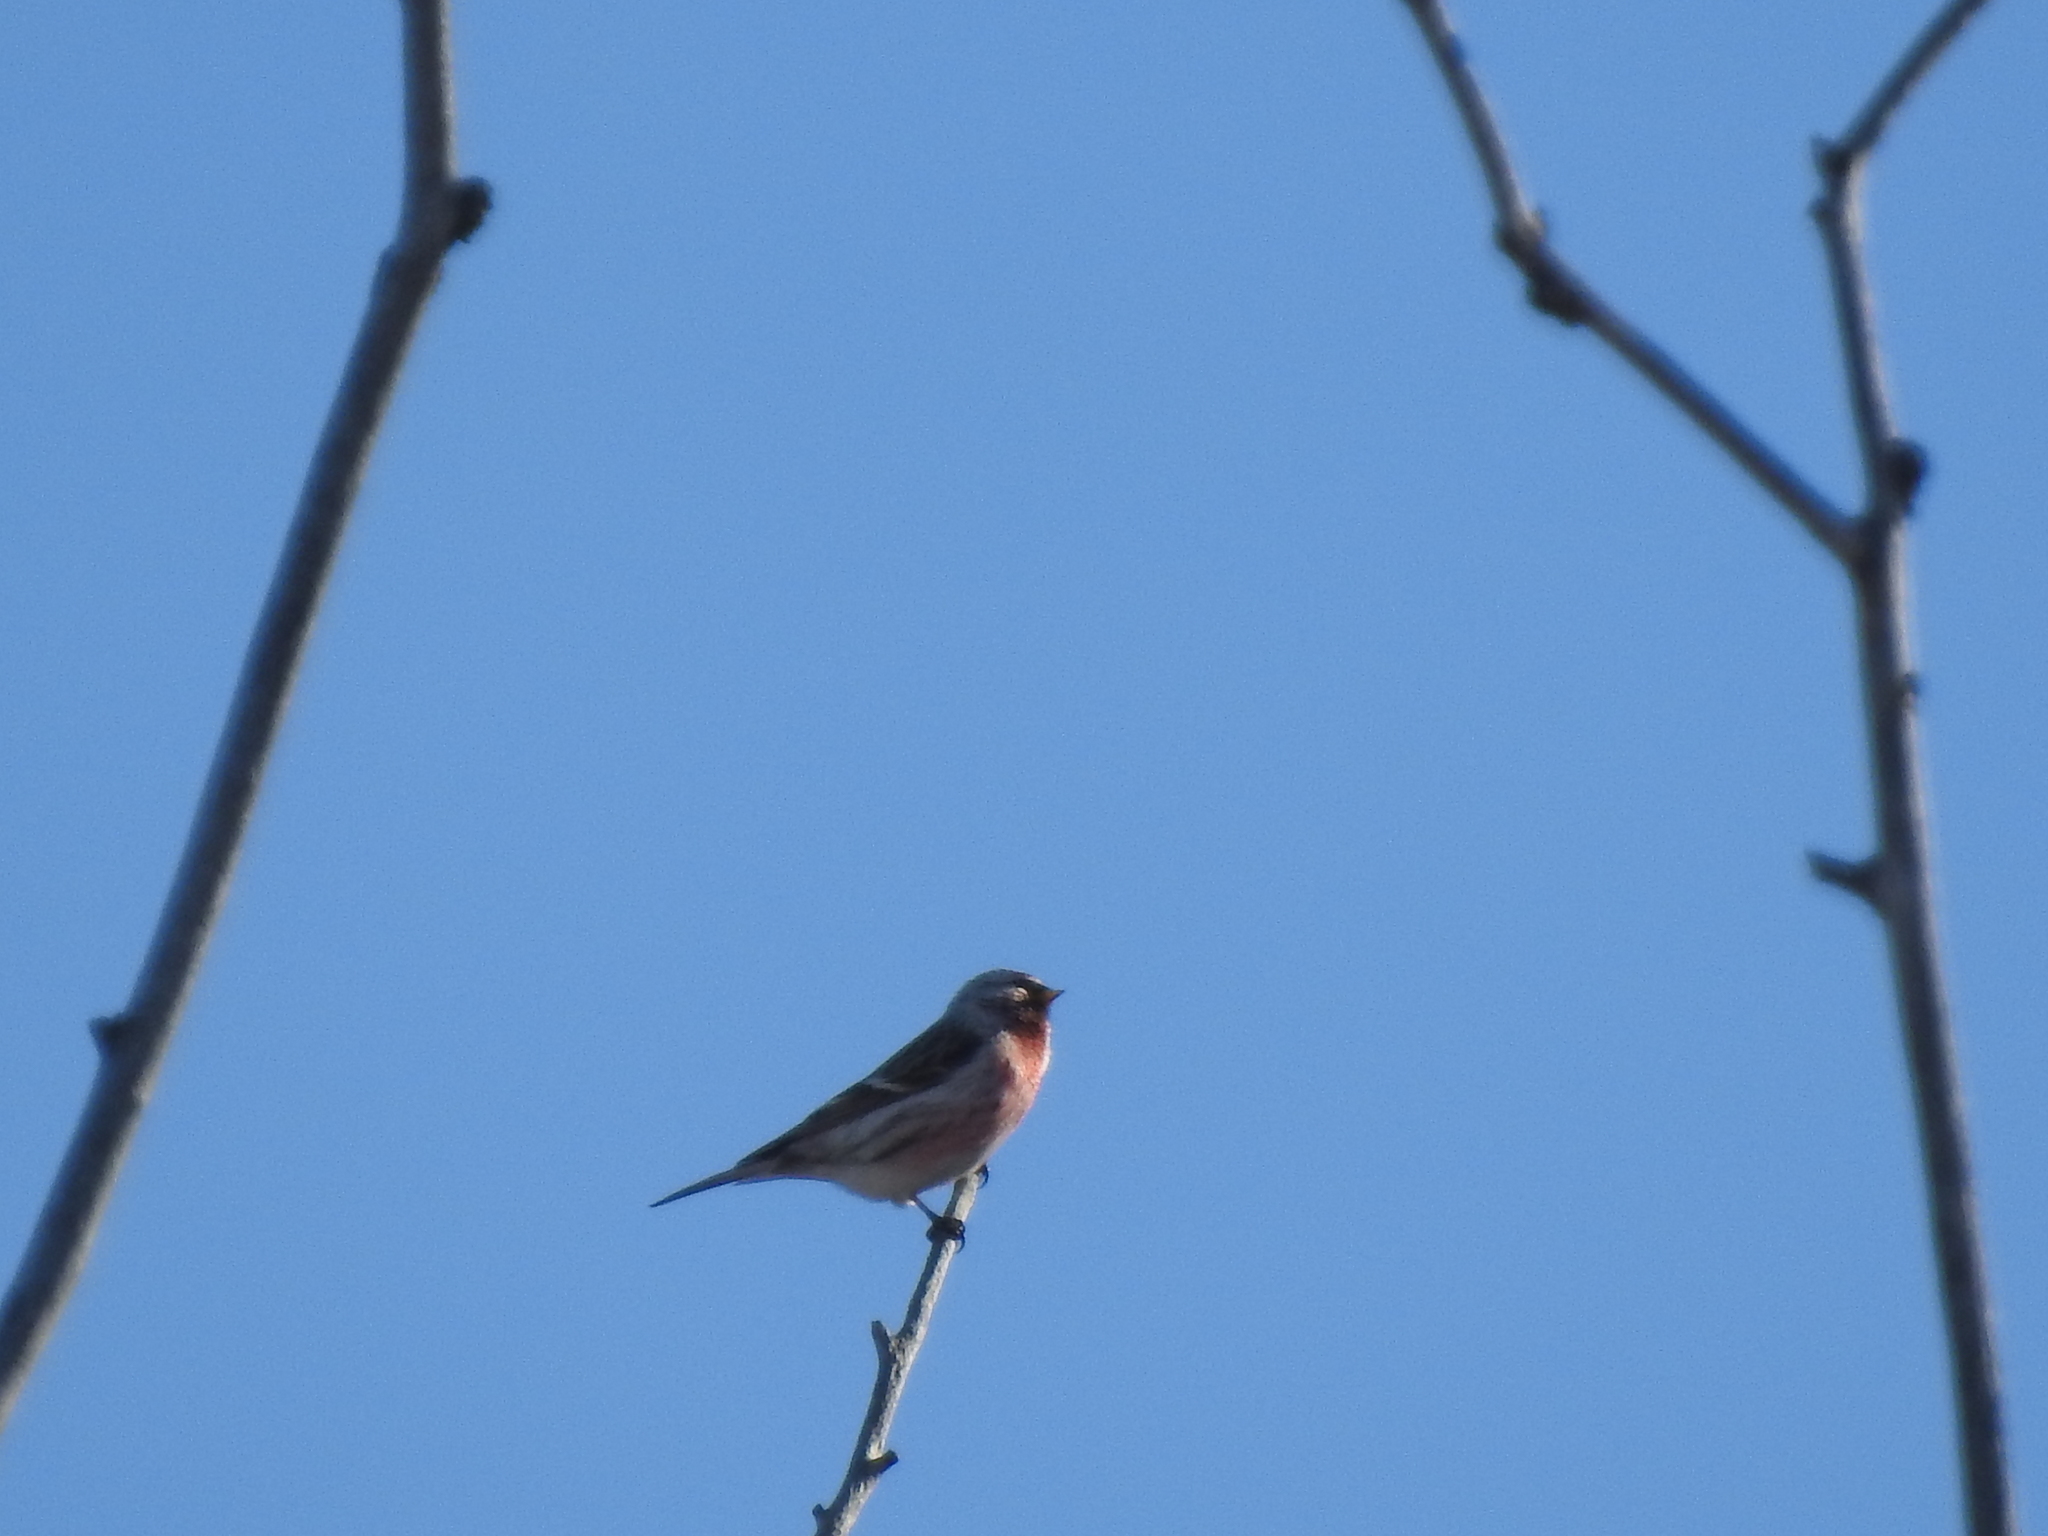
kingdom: Animalia
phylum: Chordata
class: Aves
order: Passeriformes
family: Fringillidae
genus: Acanthis
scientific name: Acanthis flammea
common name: Common redpoll
